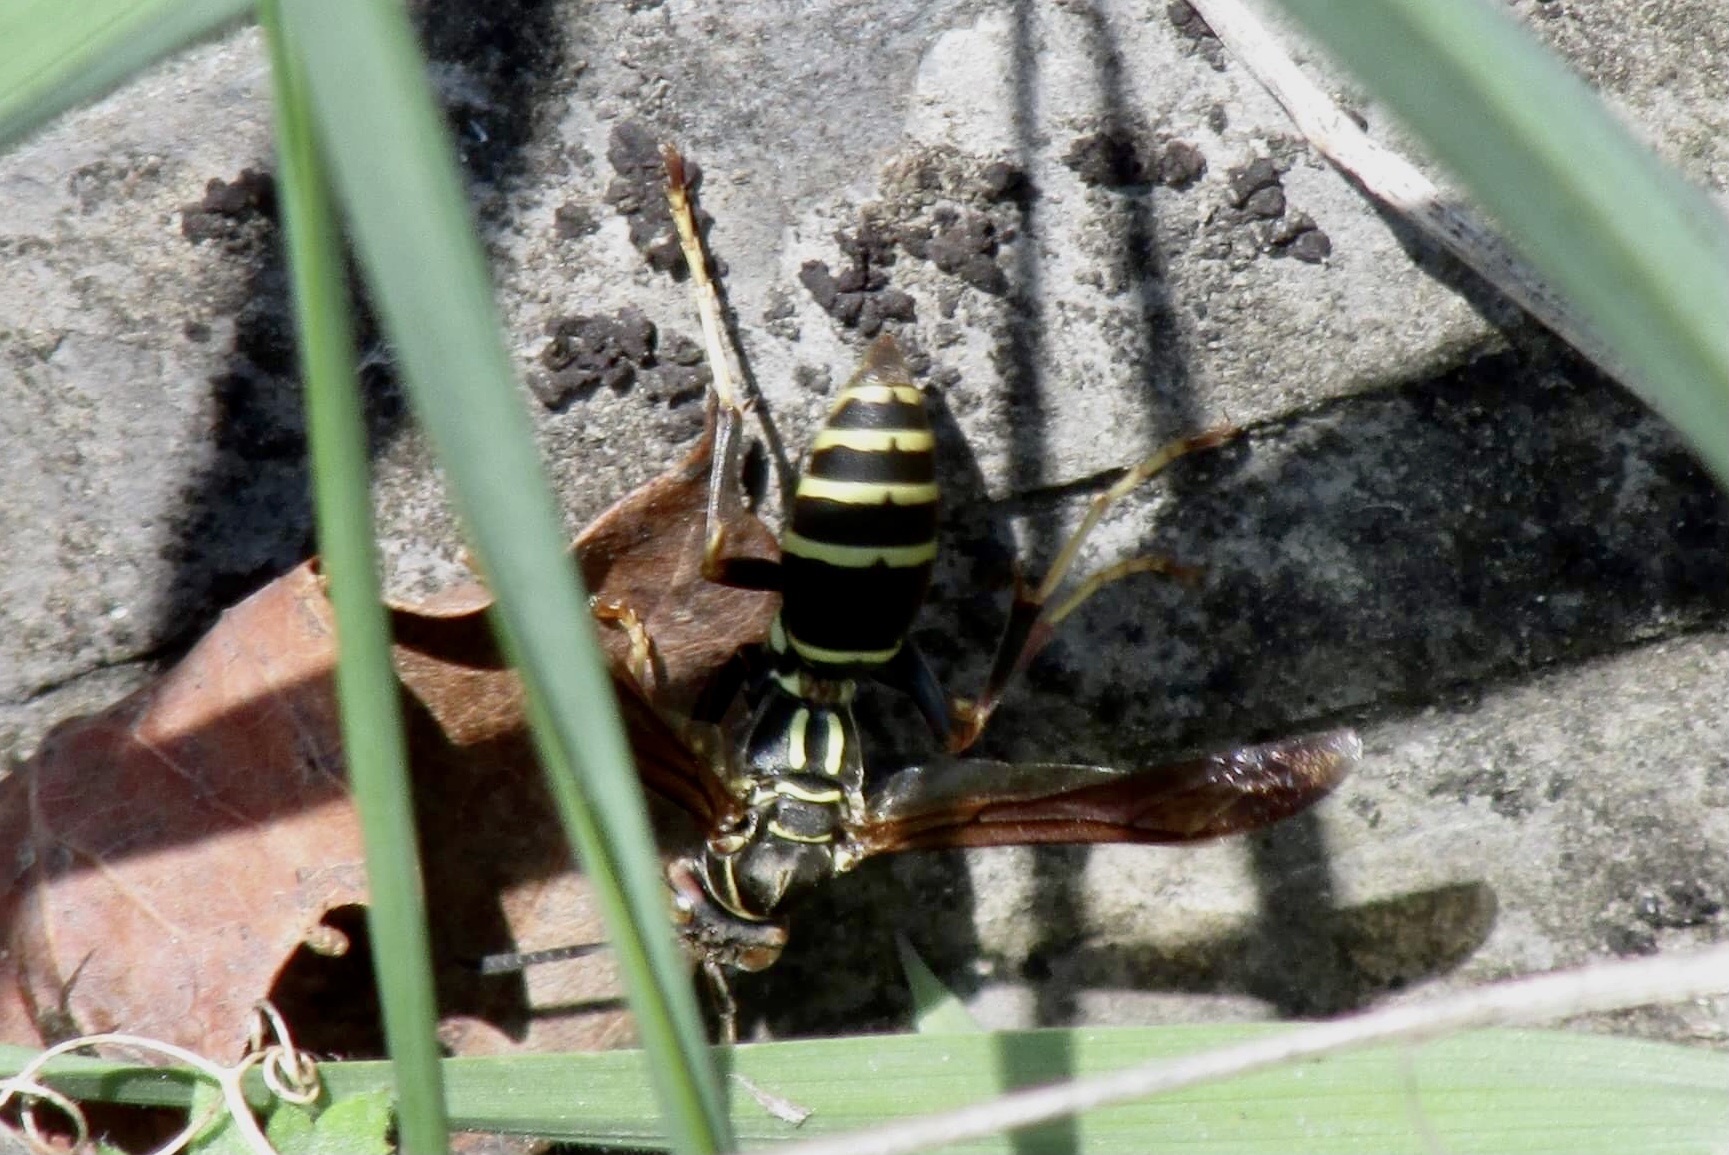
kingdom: Animalia
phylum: Arthropoda
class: Insecta
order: Hymenoptera
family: Eumenidae
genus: Polistes
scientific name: Polistes fuscatus
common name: Dark paper wasp
